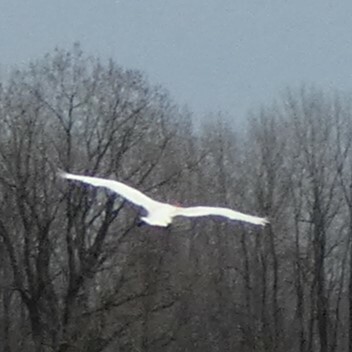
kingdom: Animalia
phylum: Chordata
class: Aves
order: Gruiformes
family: Gruidae
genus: Grus
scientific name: Grus canadensis
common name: Sandhill crane
